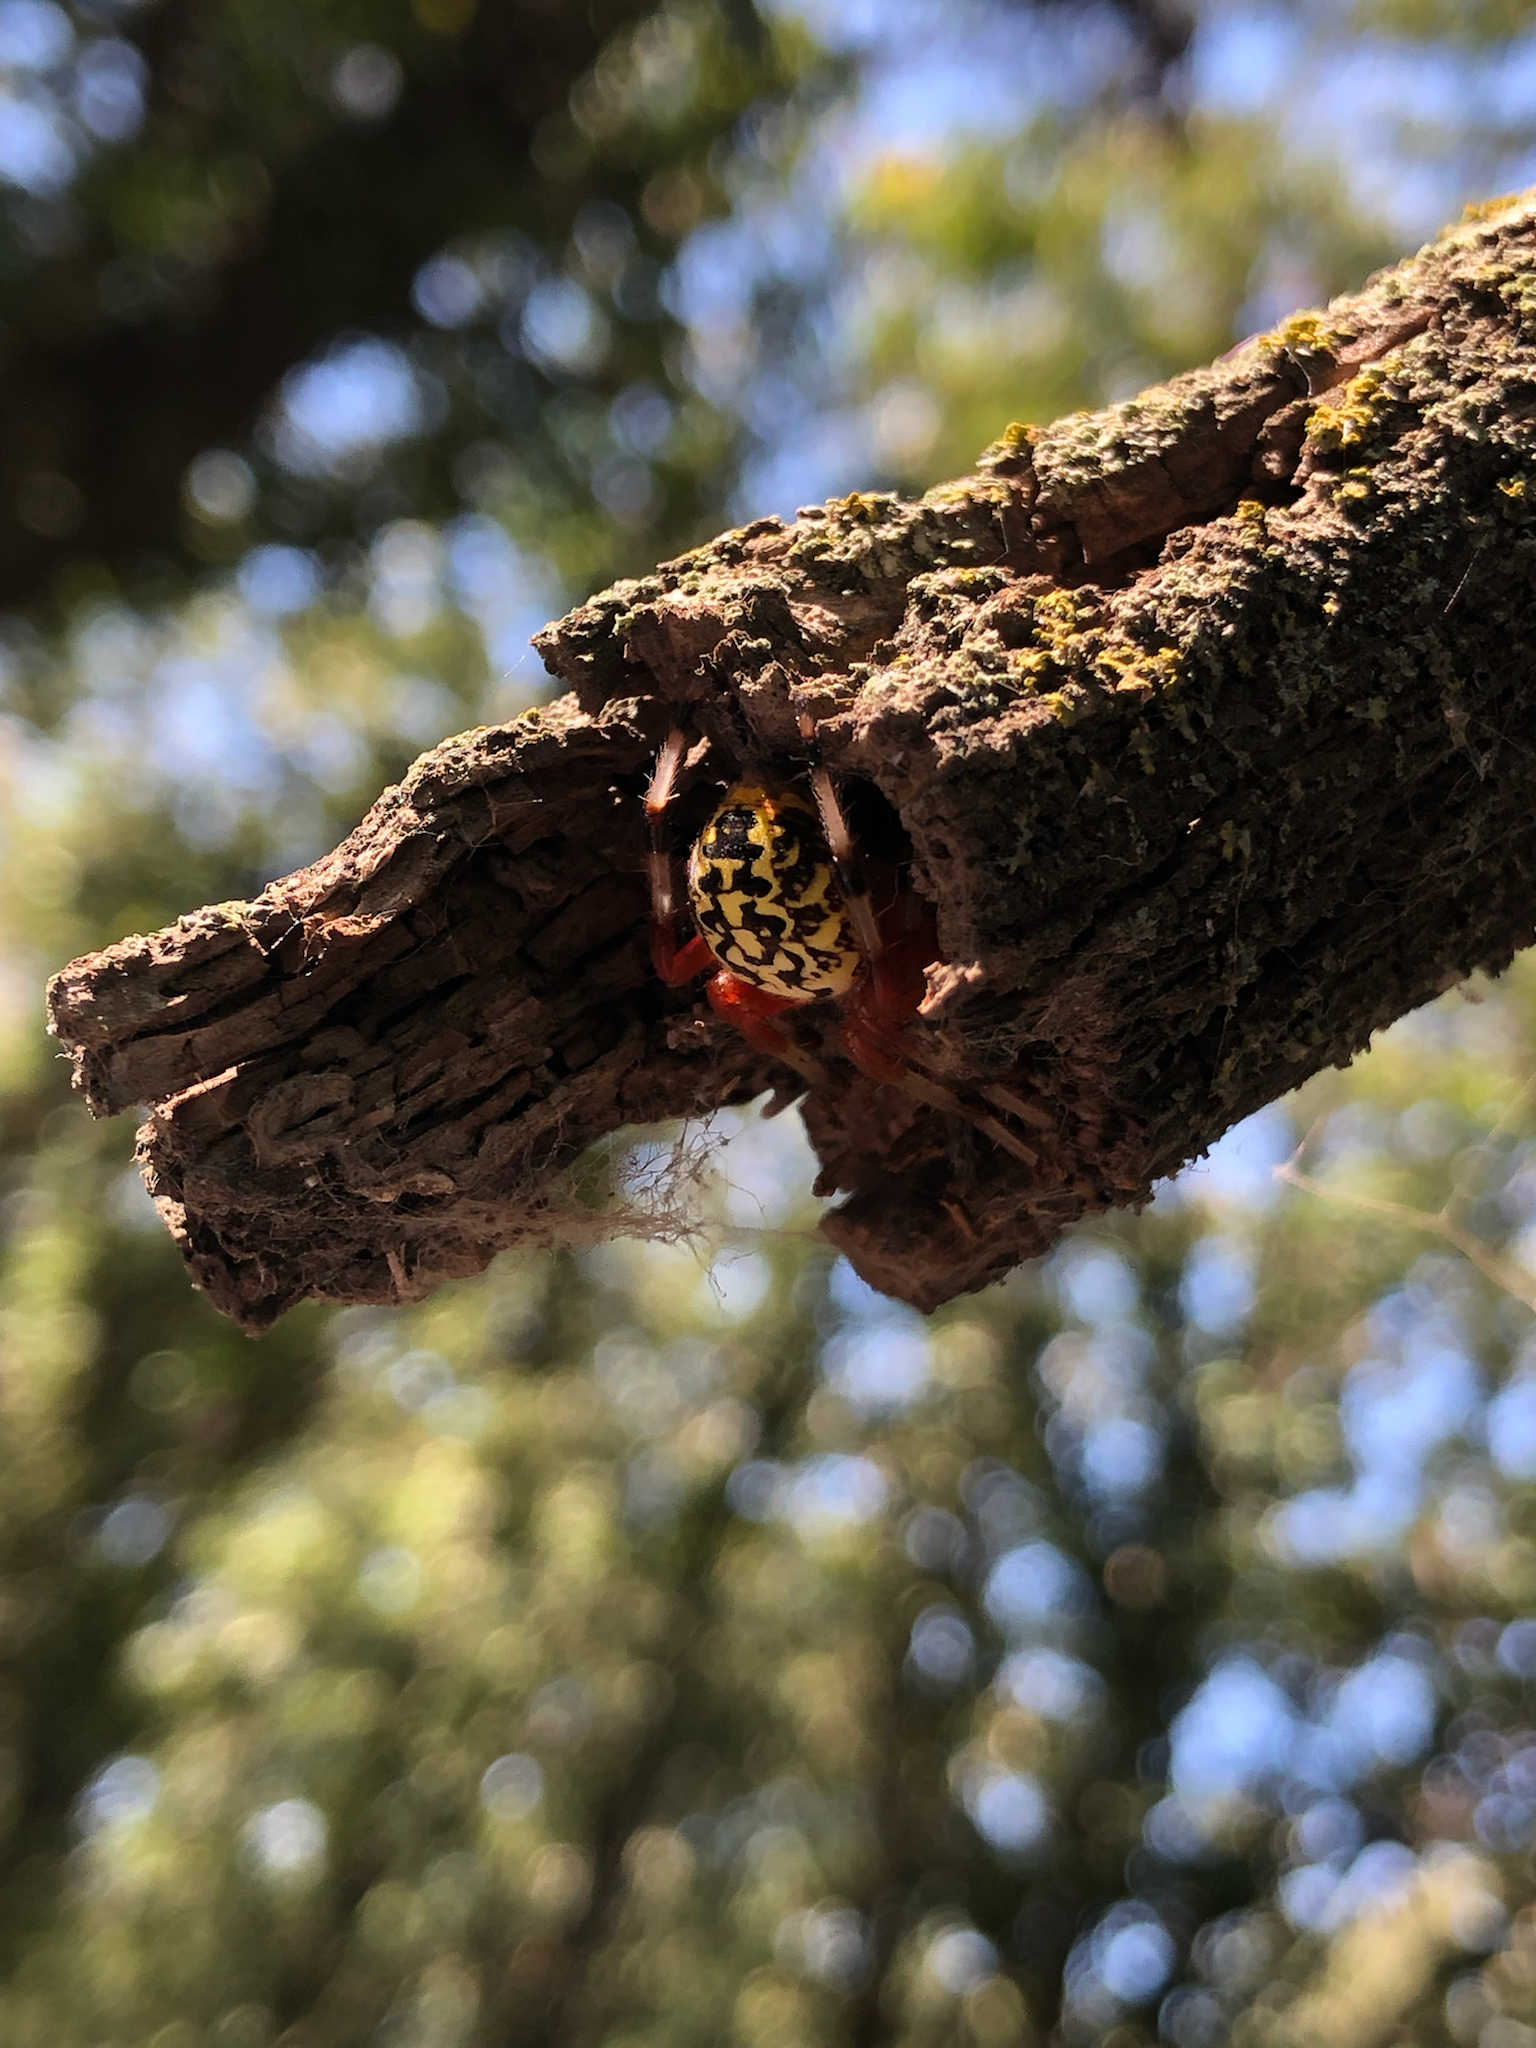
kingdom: Animalia
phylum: Arthropoda
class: Arachnida
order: Araneae
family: Araneidae
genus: Araneus
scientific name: Araneus marmoreus
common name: Marbled orbweaver
